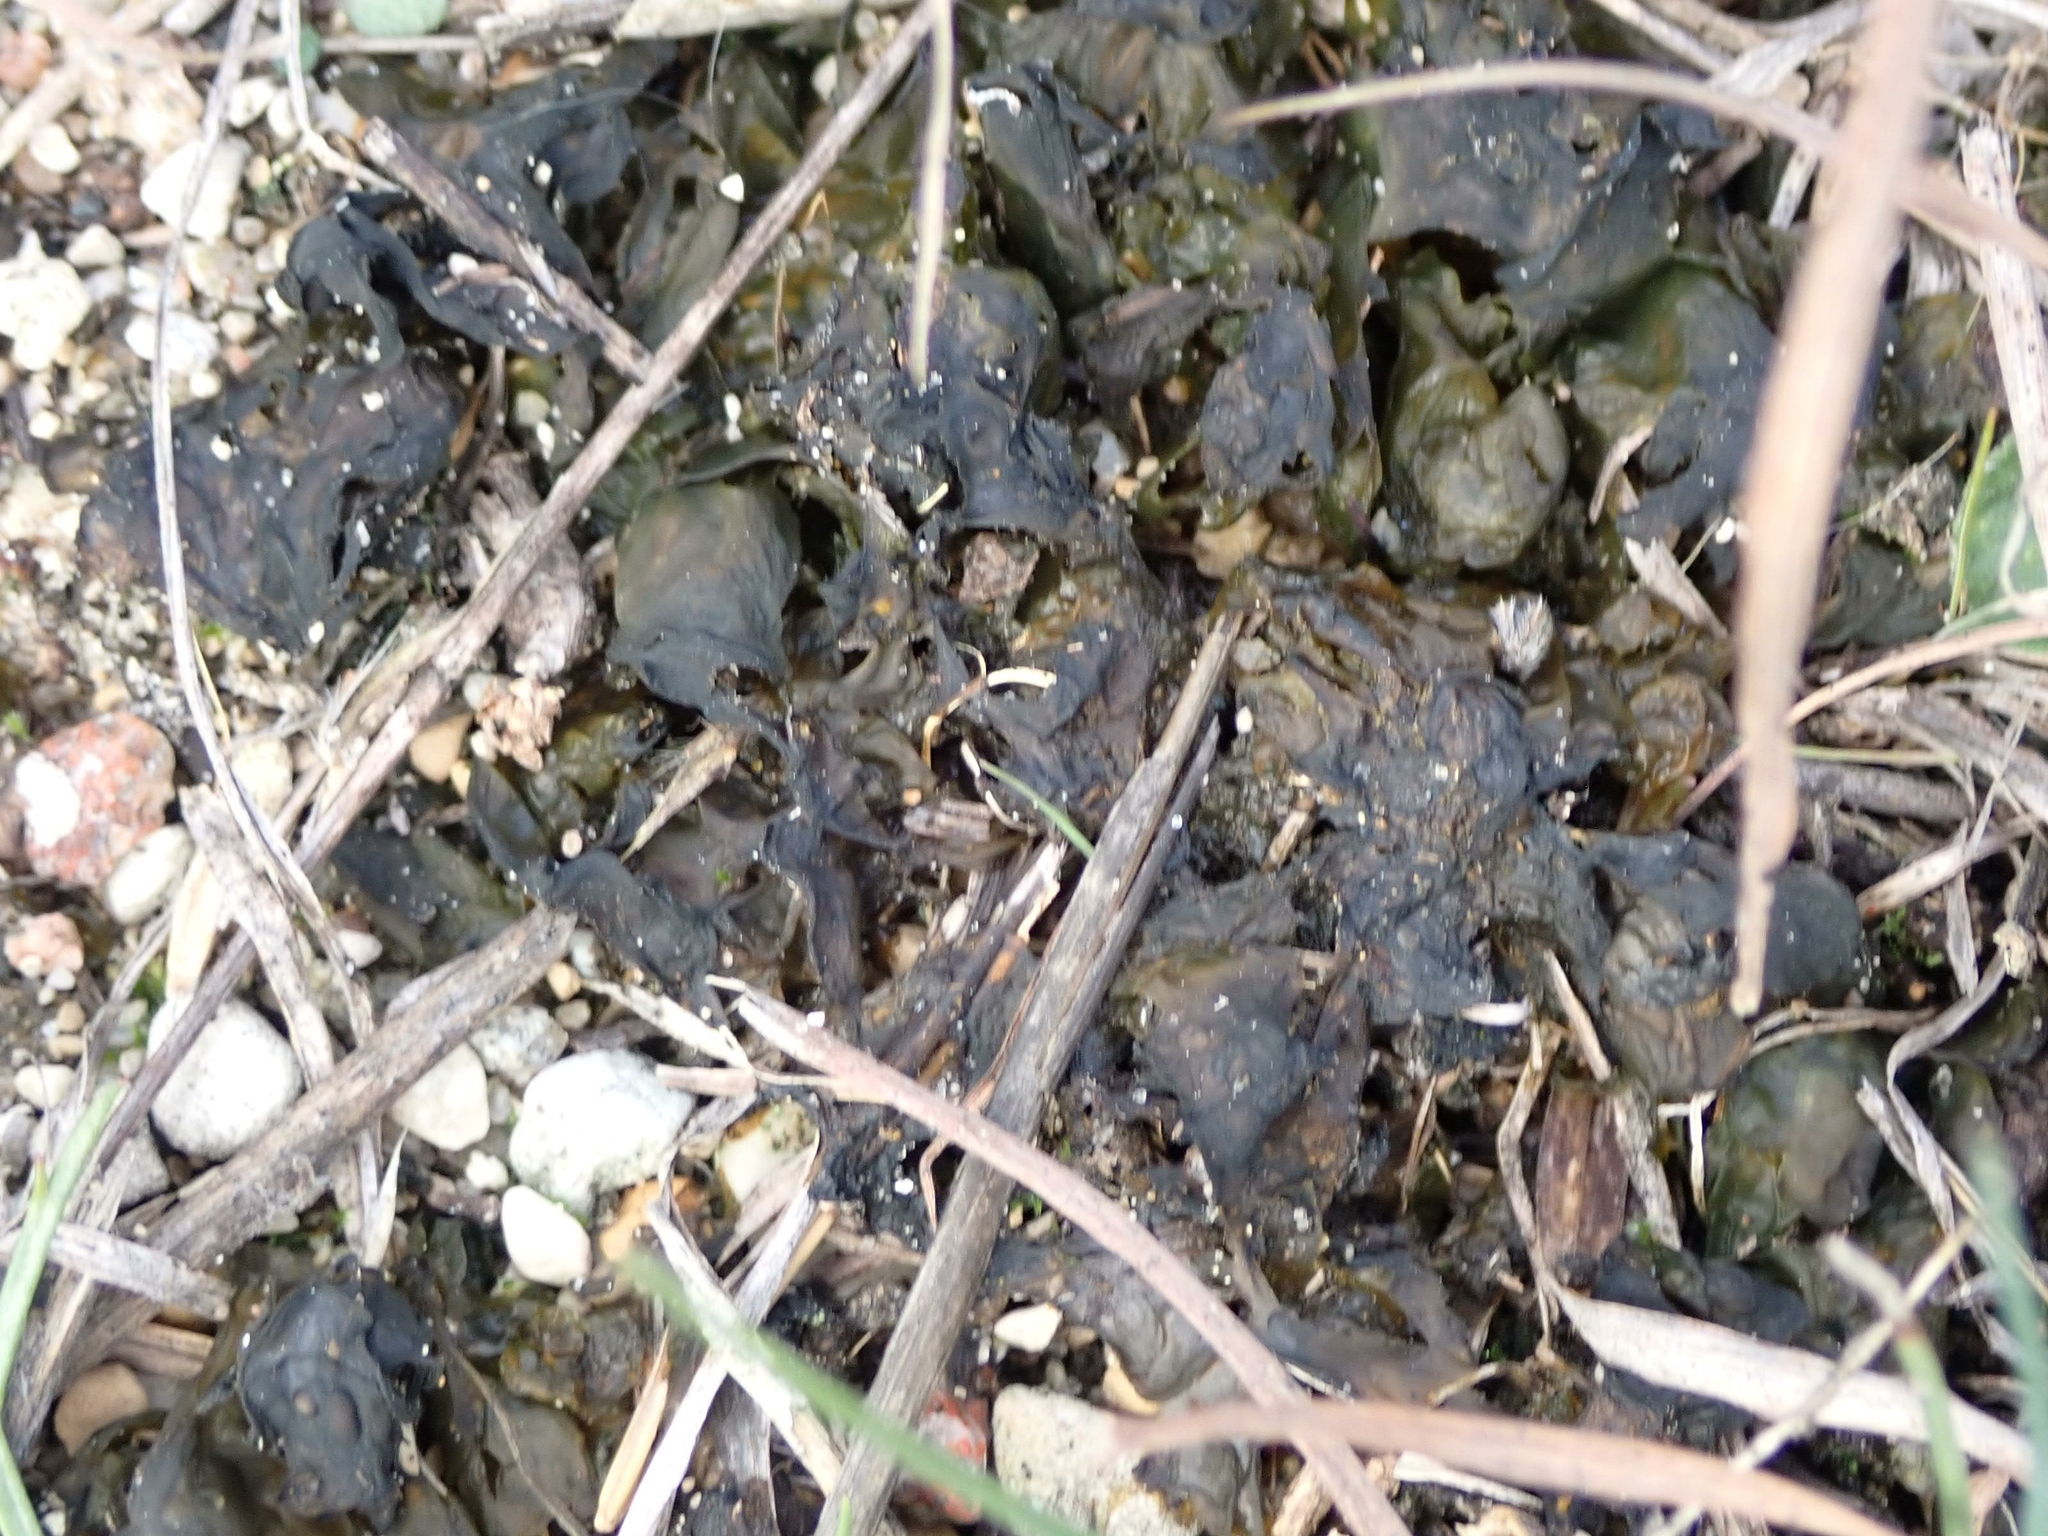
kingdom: Bacteria
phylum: Cyanobacteria
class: Cyanobacteriia
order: Cyanobacteriales
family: Nostocaceae
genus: Nostoc
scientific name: Nostoc commune
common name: Star jelly
